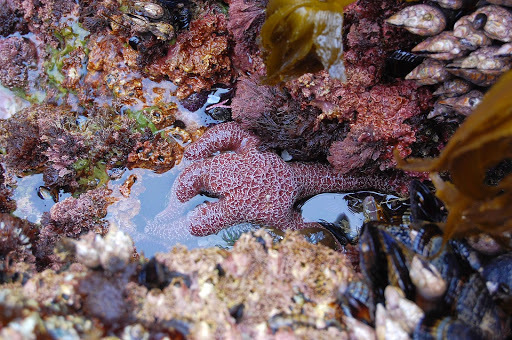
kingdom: Animalia
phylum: Echinodermata
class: Asteroidea
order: Forcipulatida
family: Asteriidae
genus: Pisaster
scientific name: Pisaster ochraceus
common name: Ochre stars
